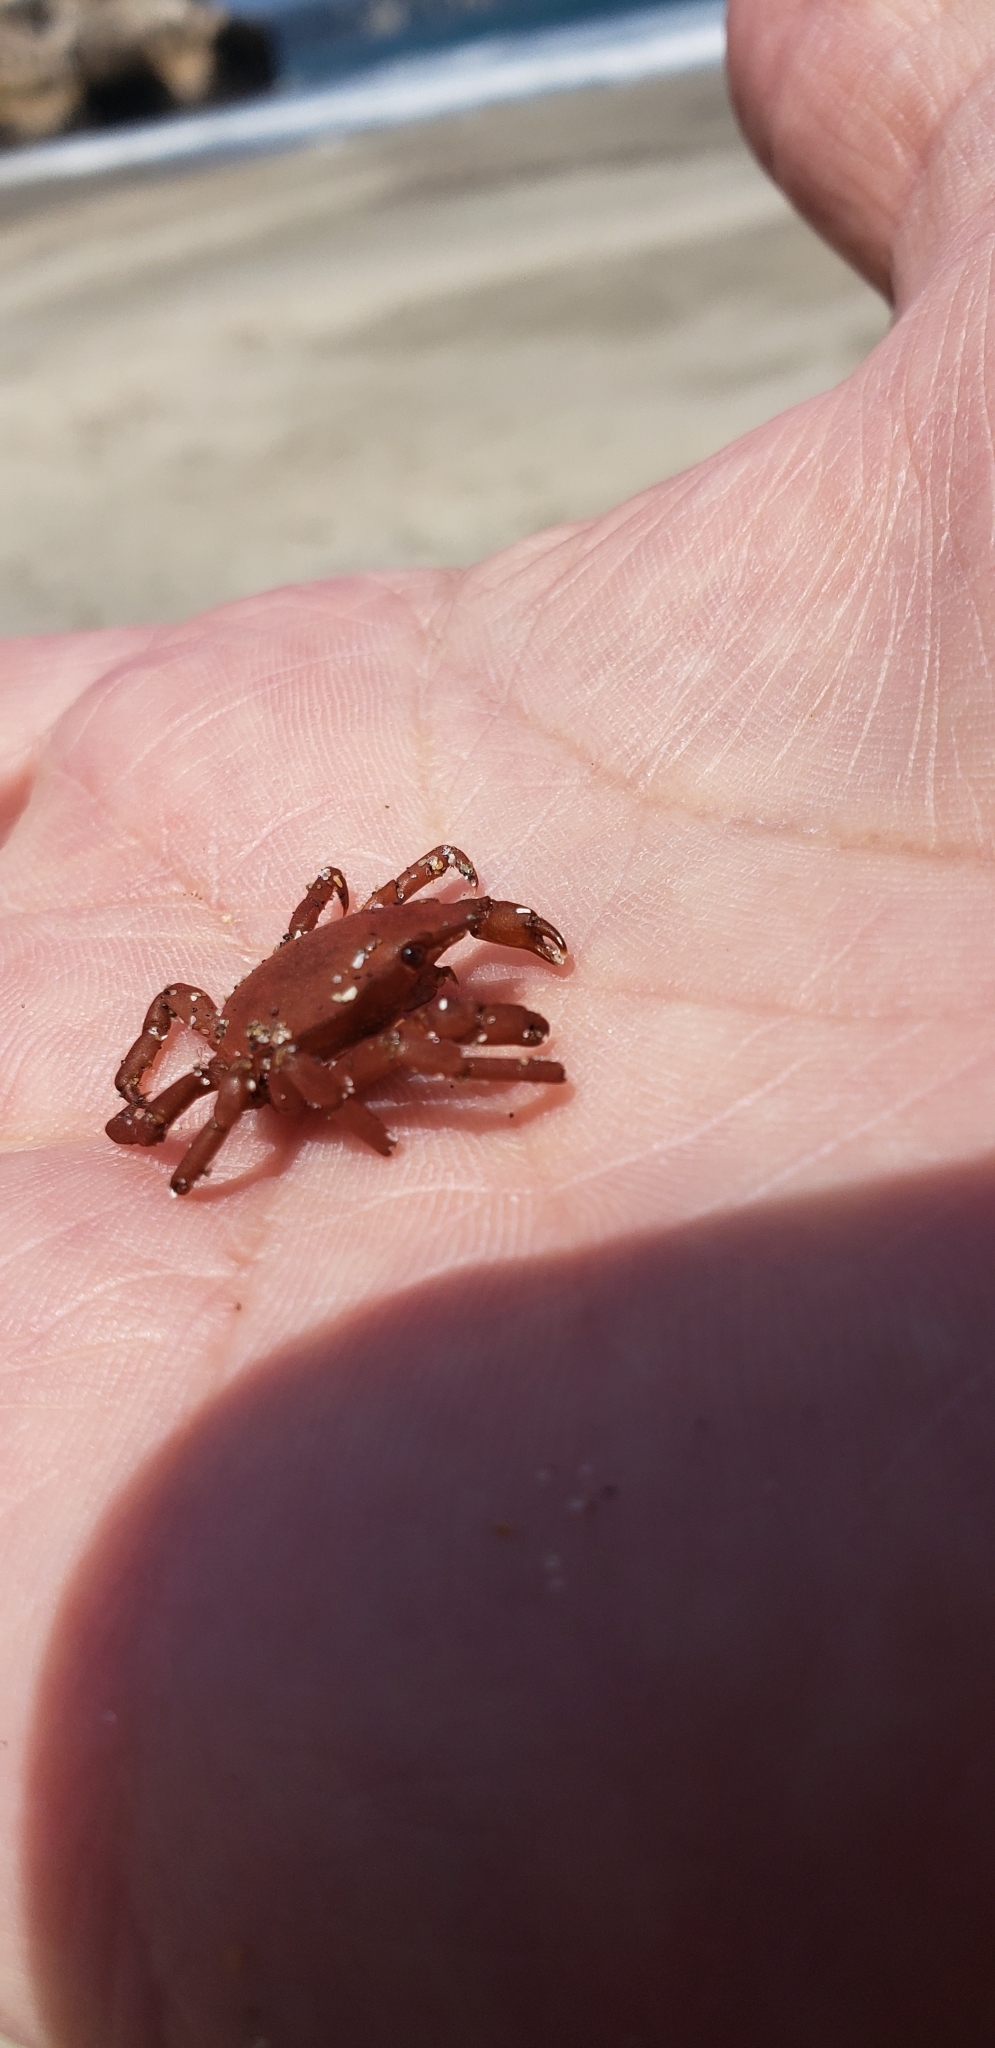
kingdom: Animalia
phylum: Arthropoda
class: Malacostraca
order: Decapoda
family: Epialtidae
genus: Taliepus
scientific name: Taliepus marginatus
